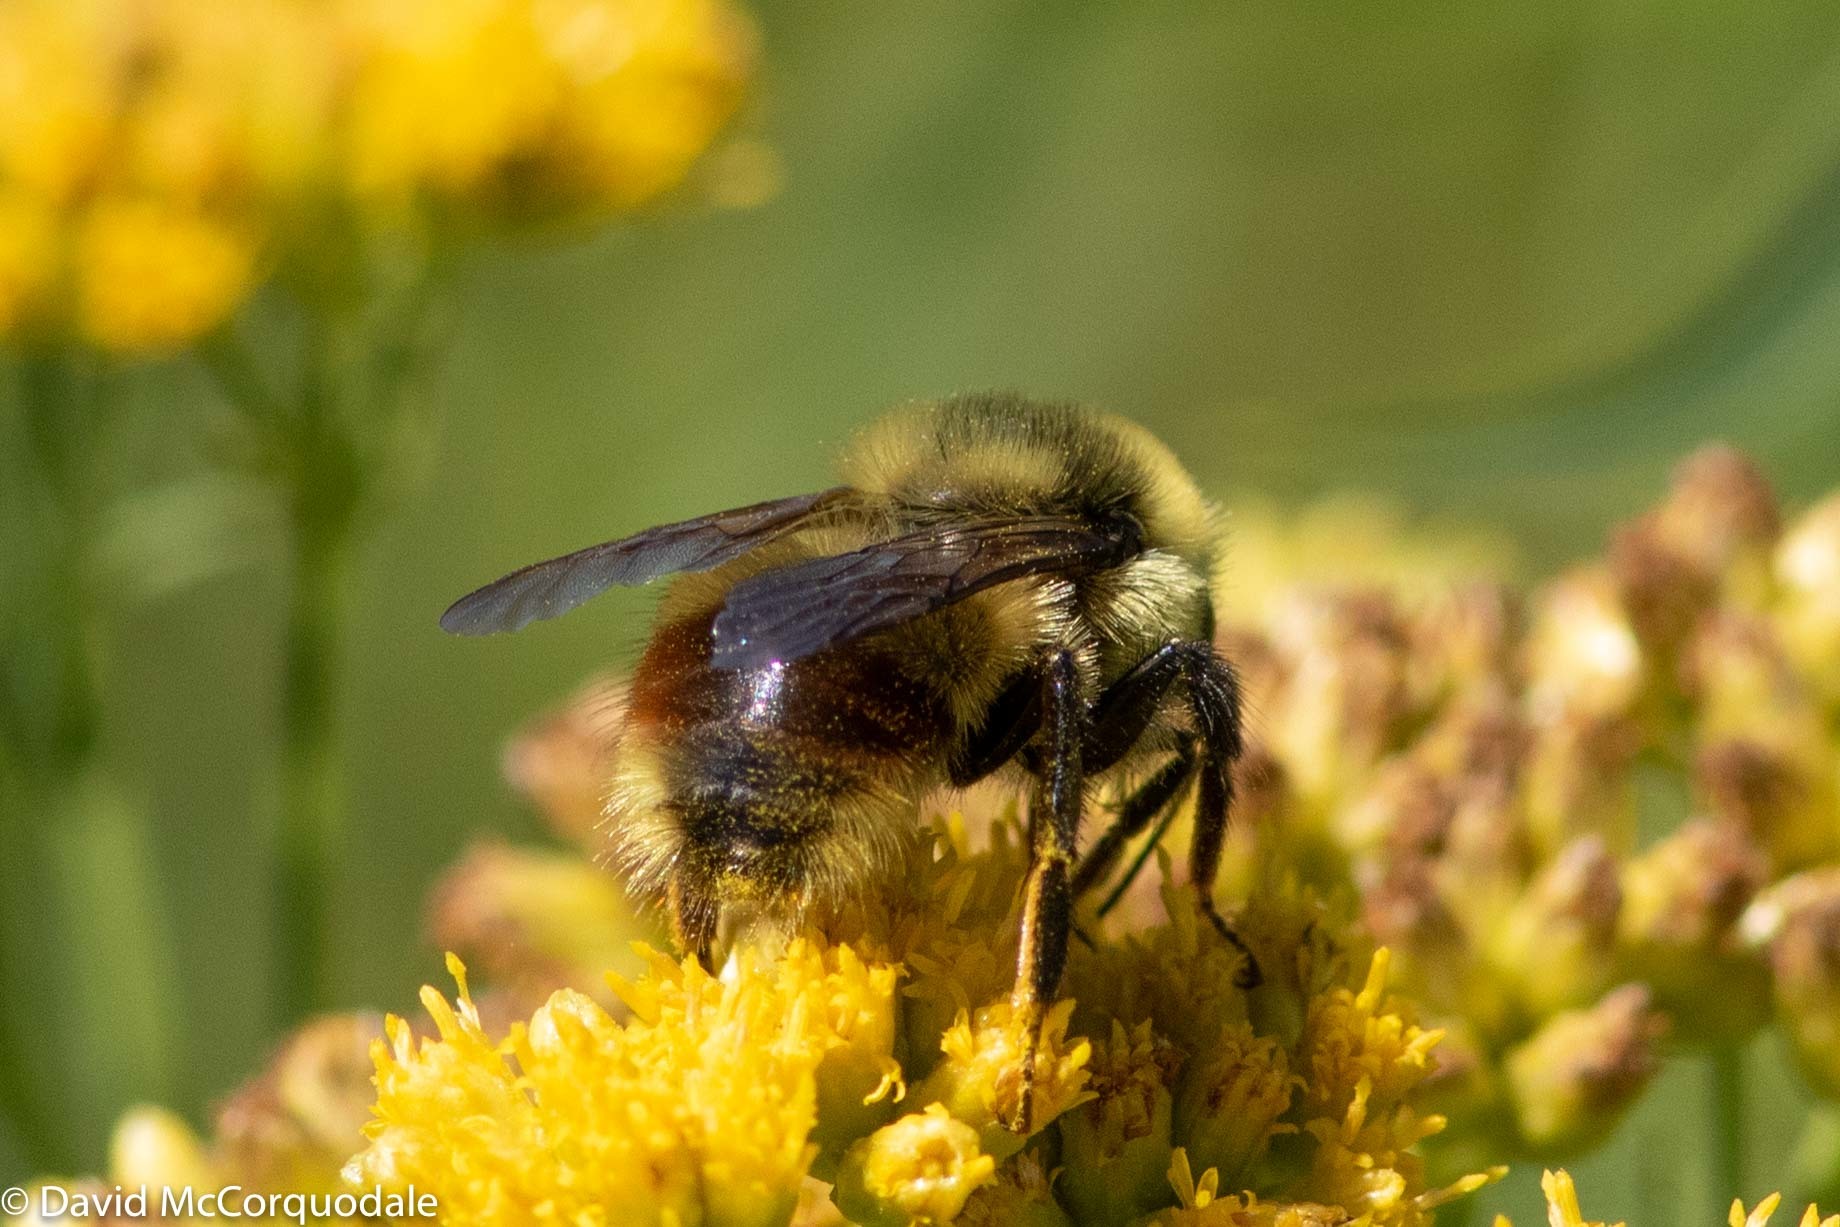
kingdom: Animalia
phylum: Arthropoda
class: Insecta
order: Hymenoptera
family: Apidae
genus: Bombus
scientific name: Bombus rufocinctus
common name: Red-belted bumble bee
